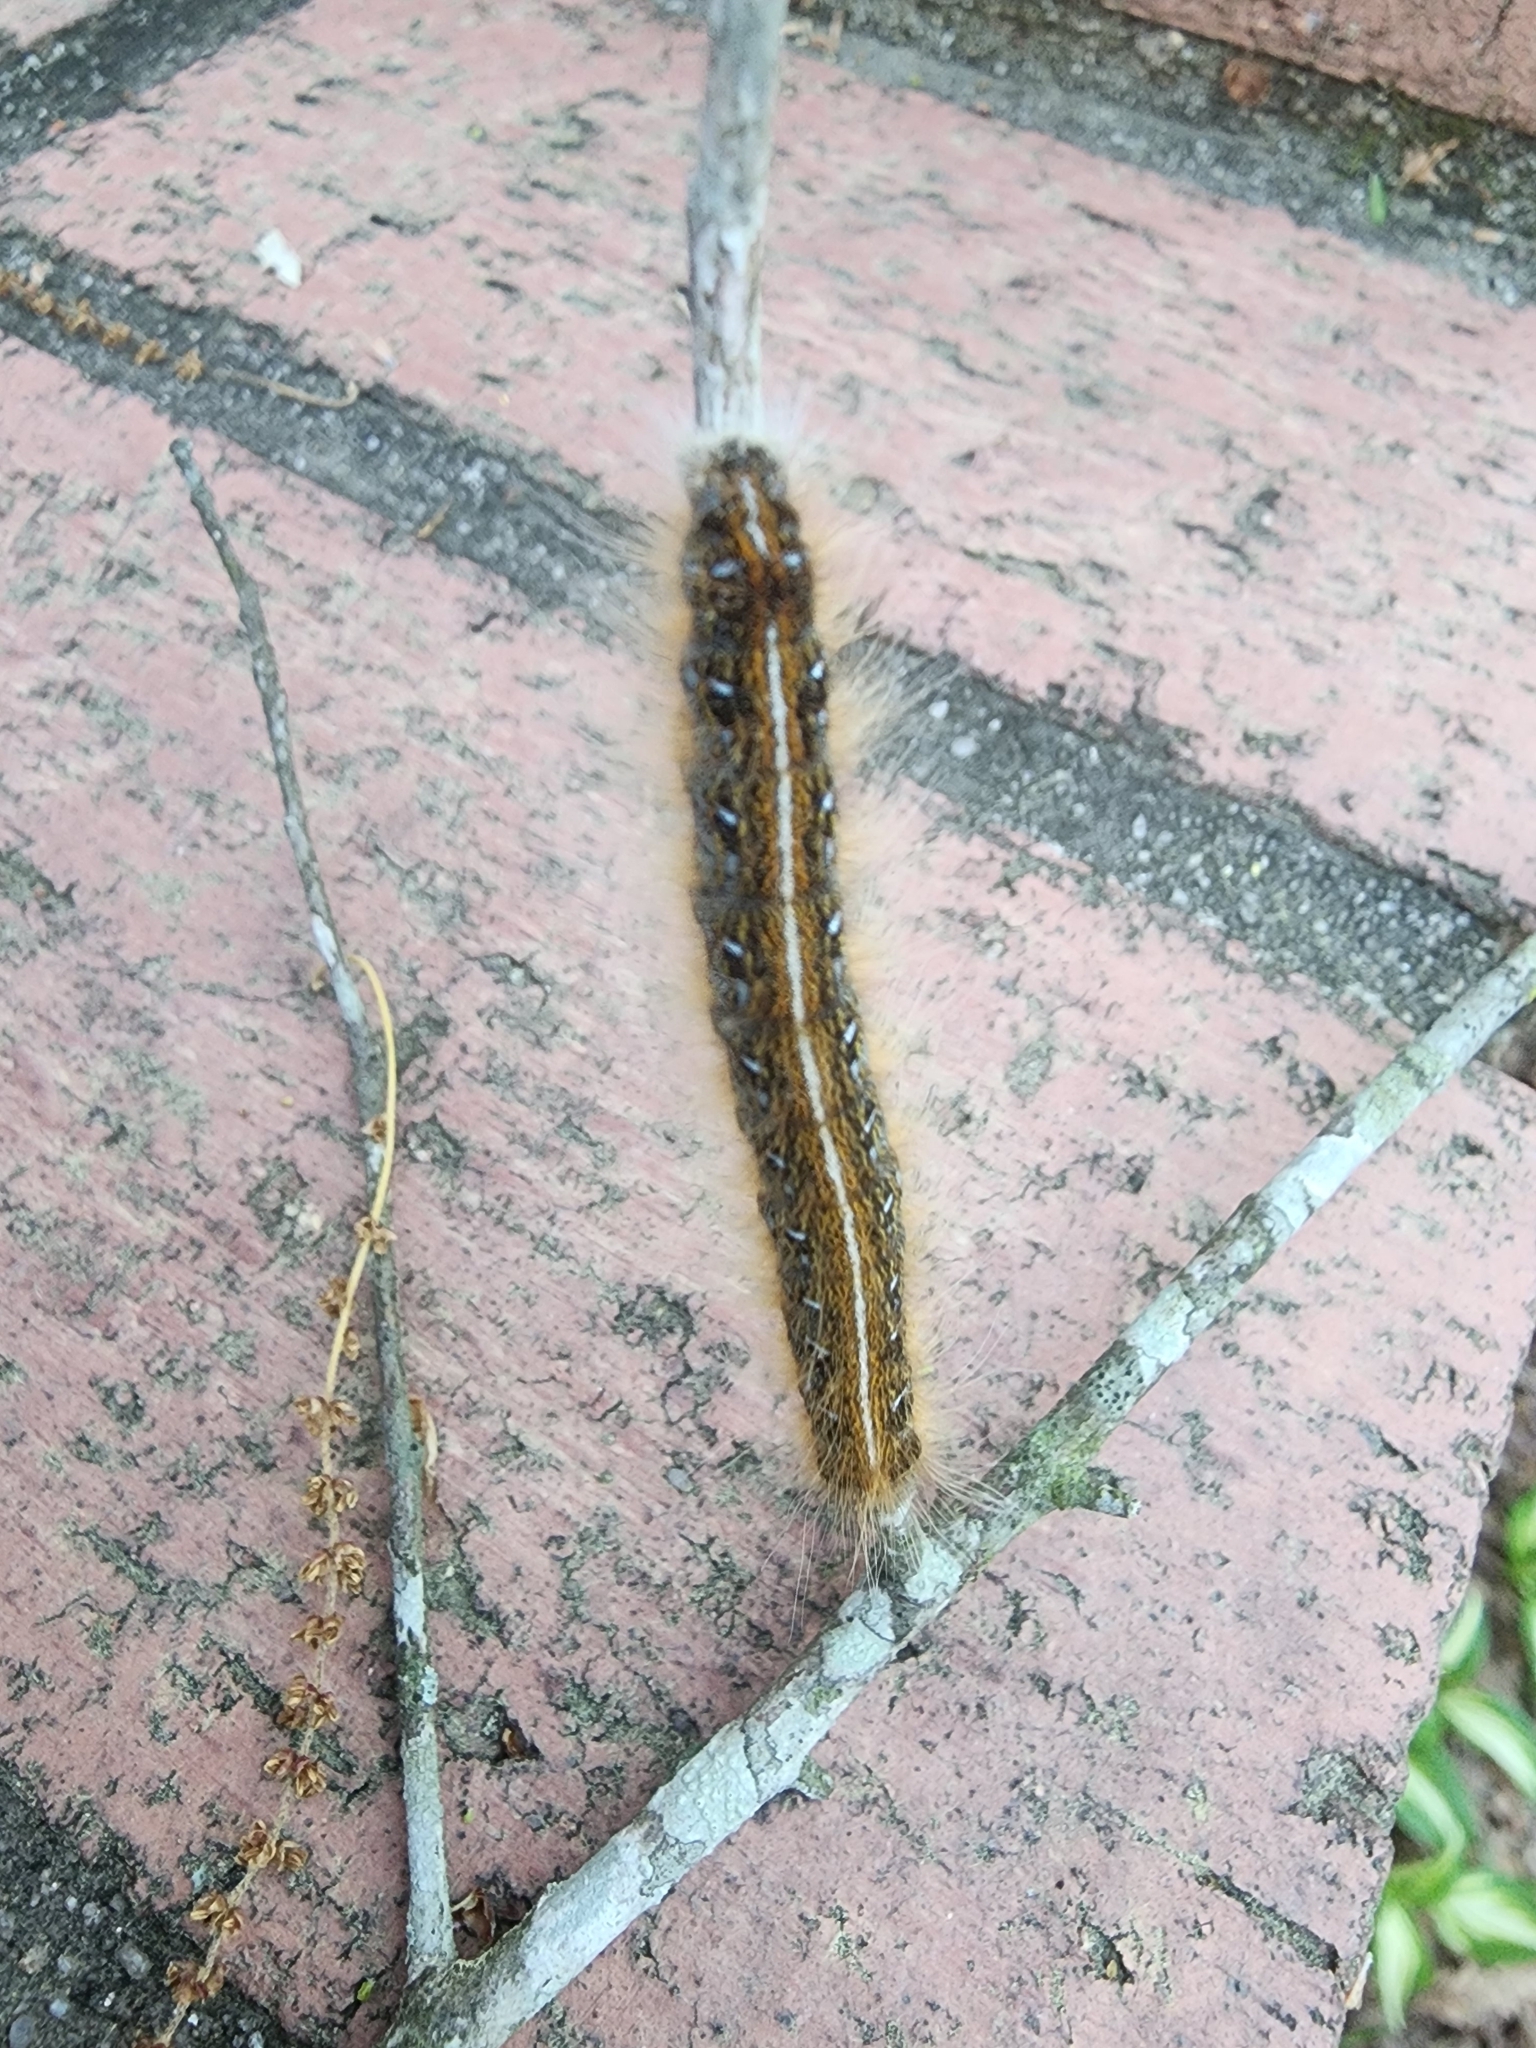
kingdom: Animalia
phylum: Arthropoda
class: Insecta
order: Lepidoptera
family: Lasiocampidae
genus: Malacosoma
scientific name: Malacosoma americana
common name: Eastern tent caterpillar moth
